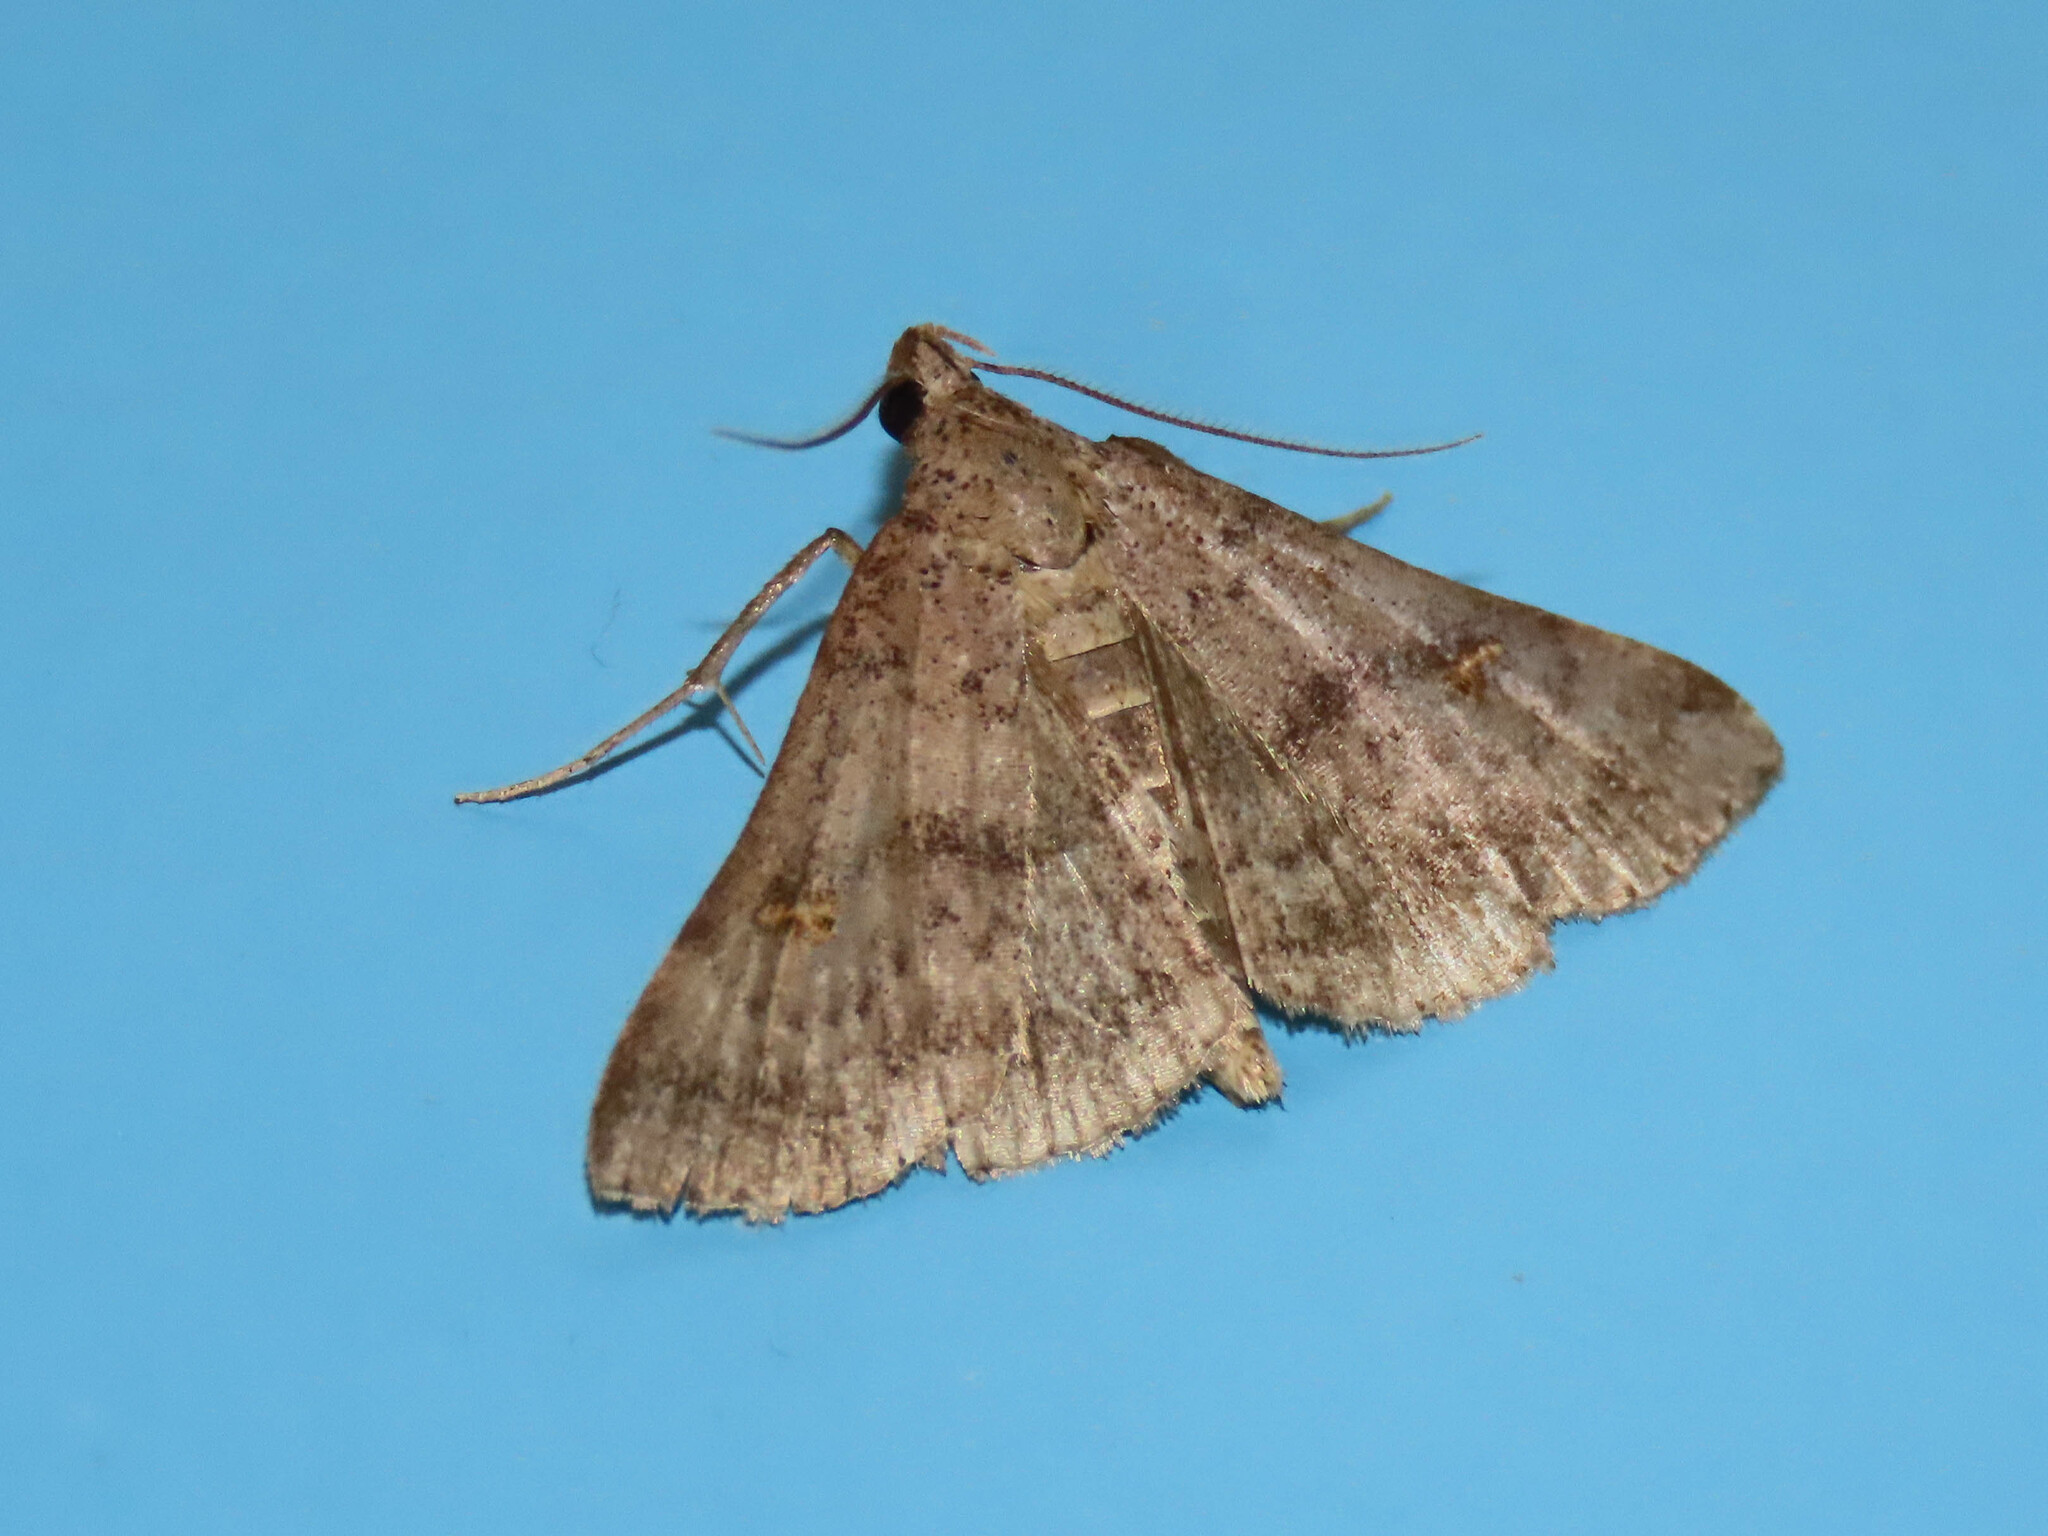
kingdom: Animalia
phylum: Arthropoda
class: Insecta
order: Lepidoptera
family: Erebidae
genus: Renia
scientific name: Renia discoloralis
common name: Discolored renia moth
